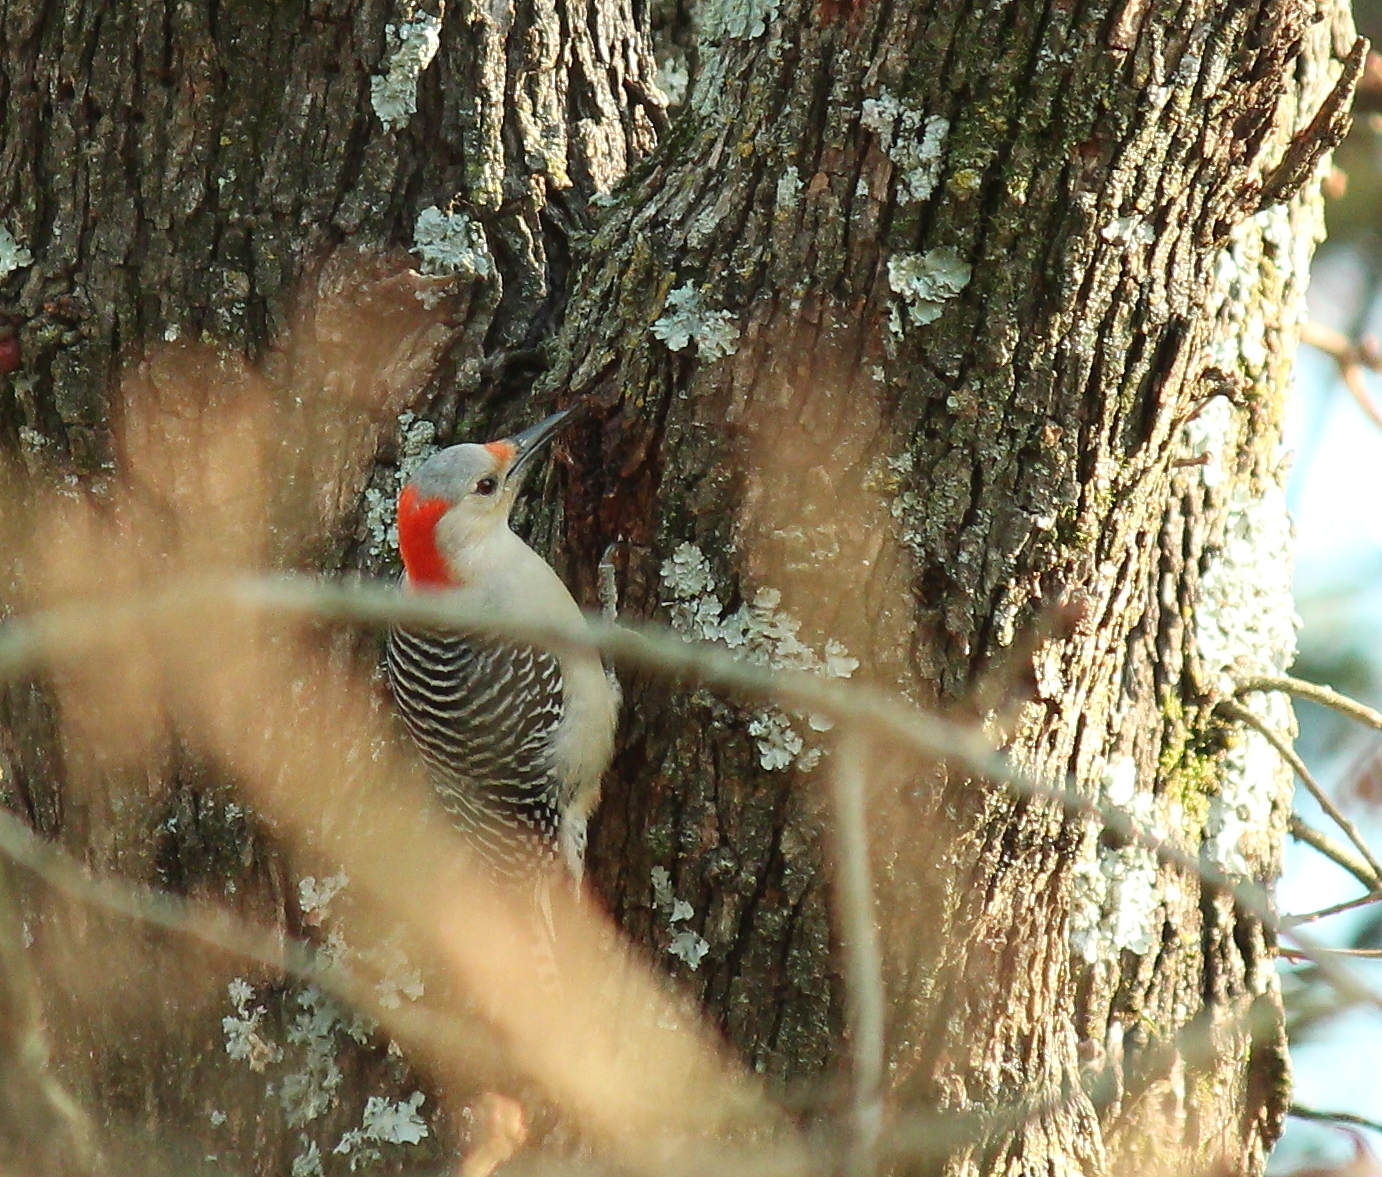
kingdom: Animalia
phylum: Chordata
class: Aves
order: Piciformes
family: Picidae
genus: Melanerpes
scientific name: Melanerpes carolinus
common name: Red-bellied woodpecker
